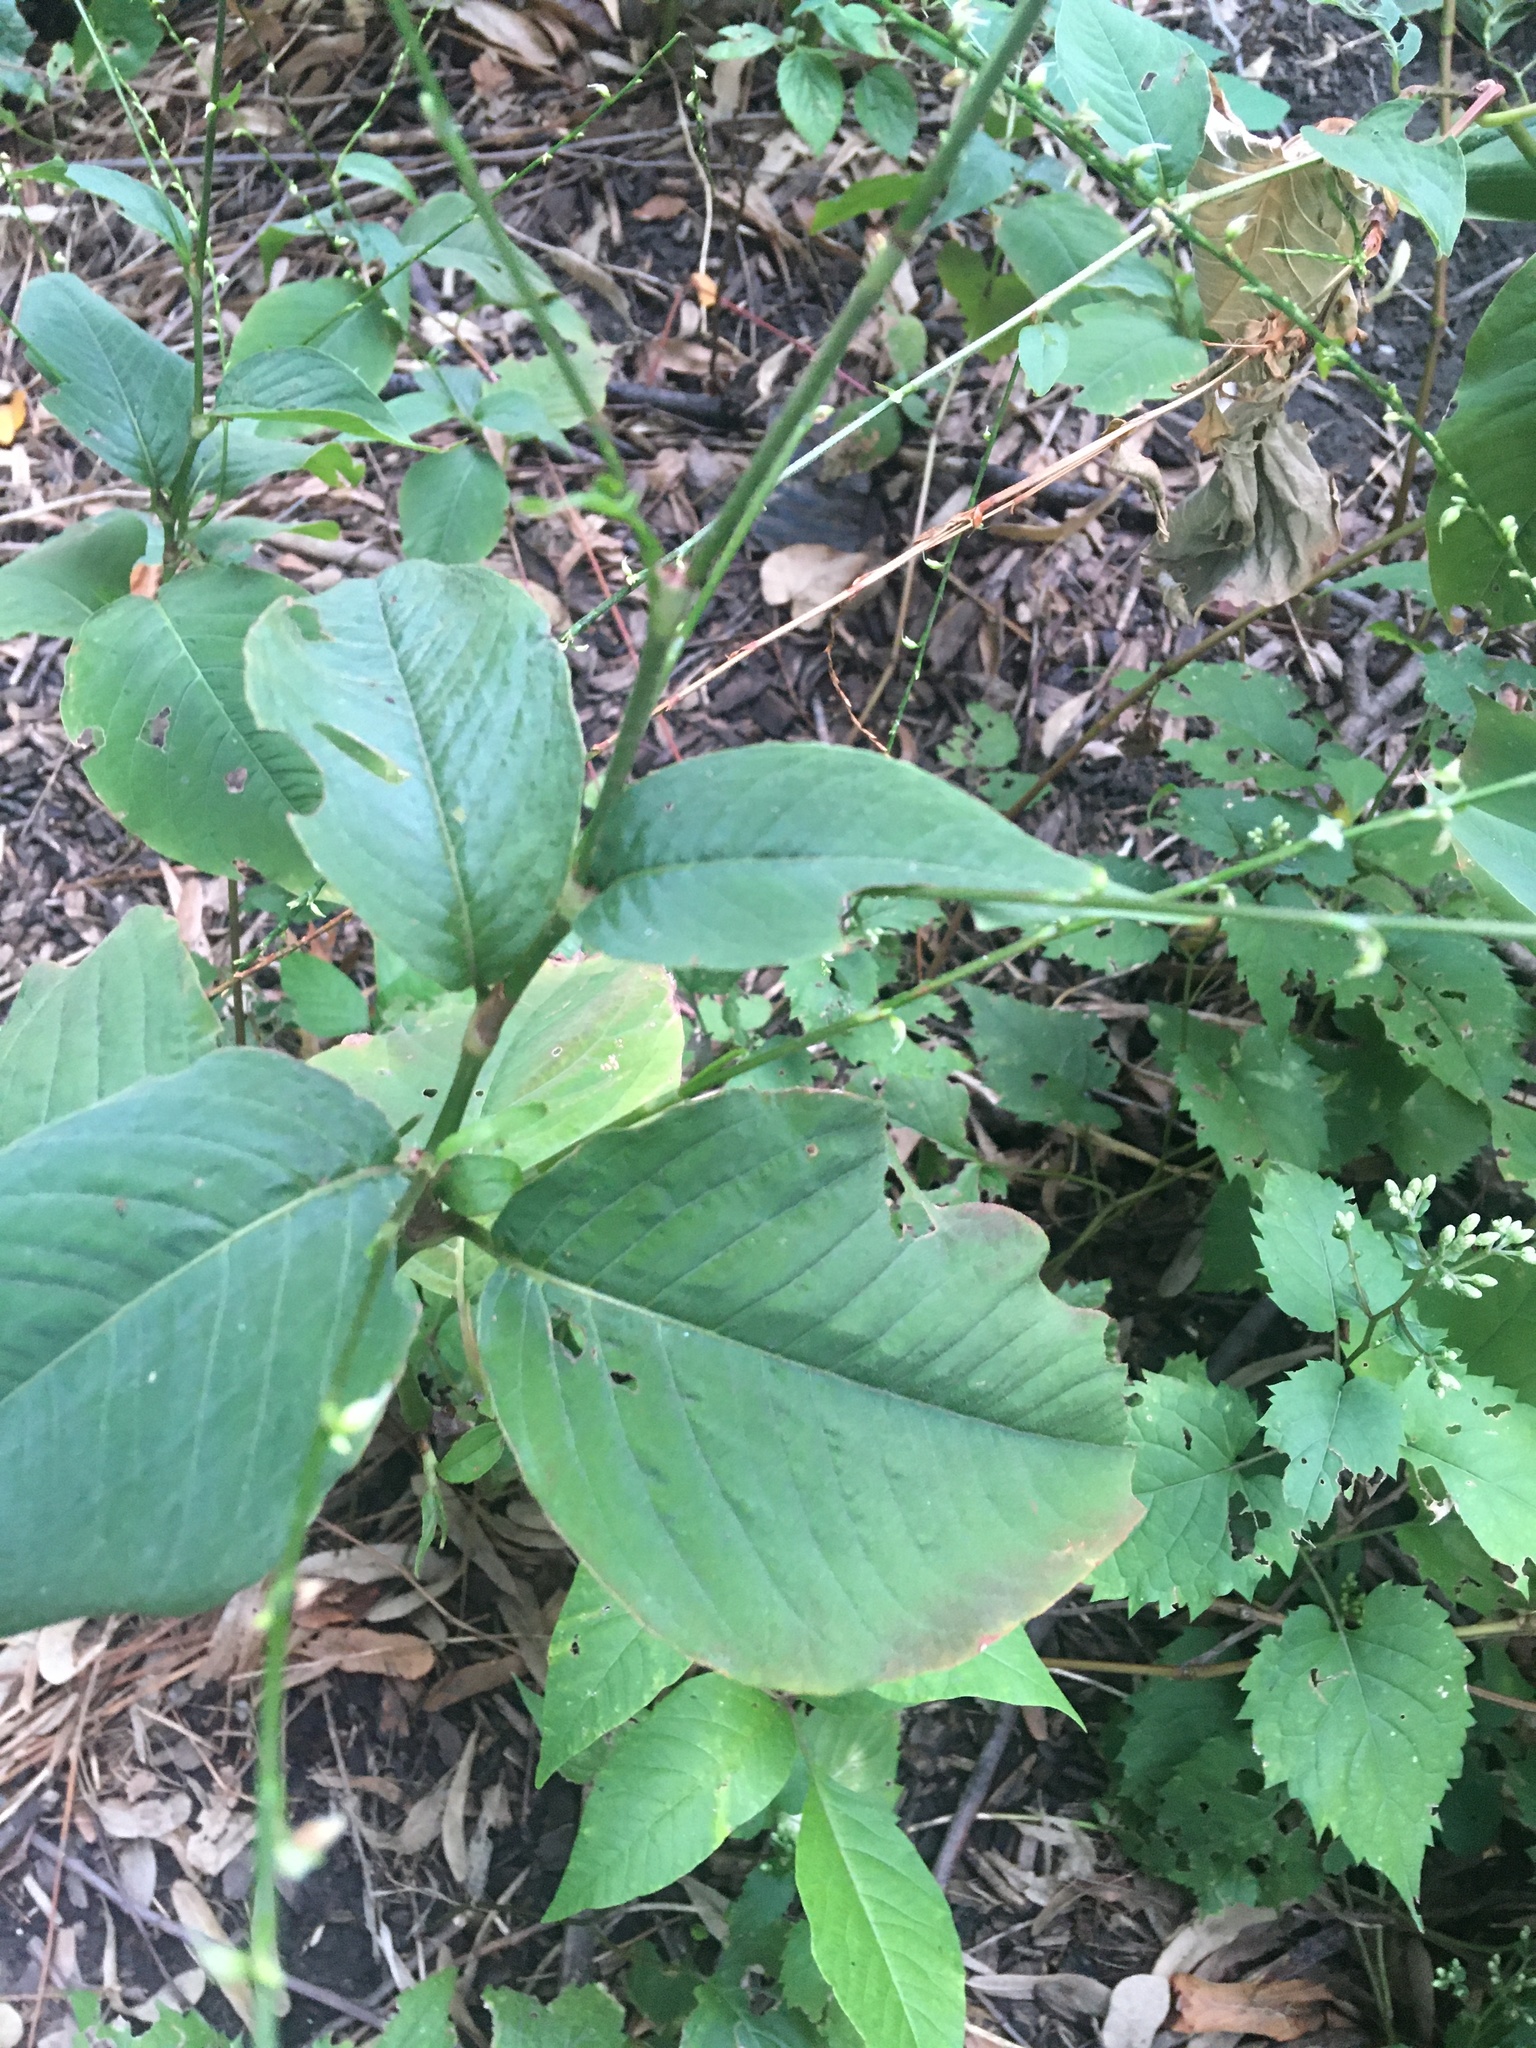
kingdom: Plantae
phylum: Tracheophyta
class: Magnoliopsida
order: Caryophyllales
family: Polygonaceae
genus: Persicaria
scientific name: Persicaria virginiana
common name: Jumpseed
